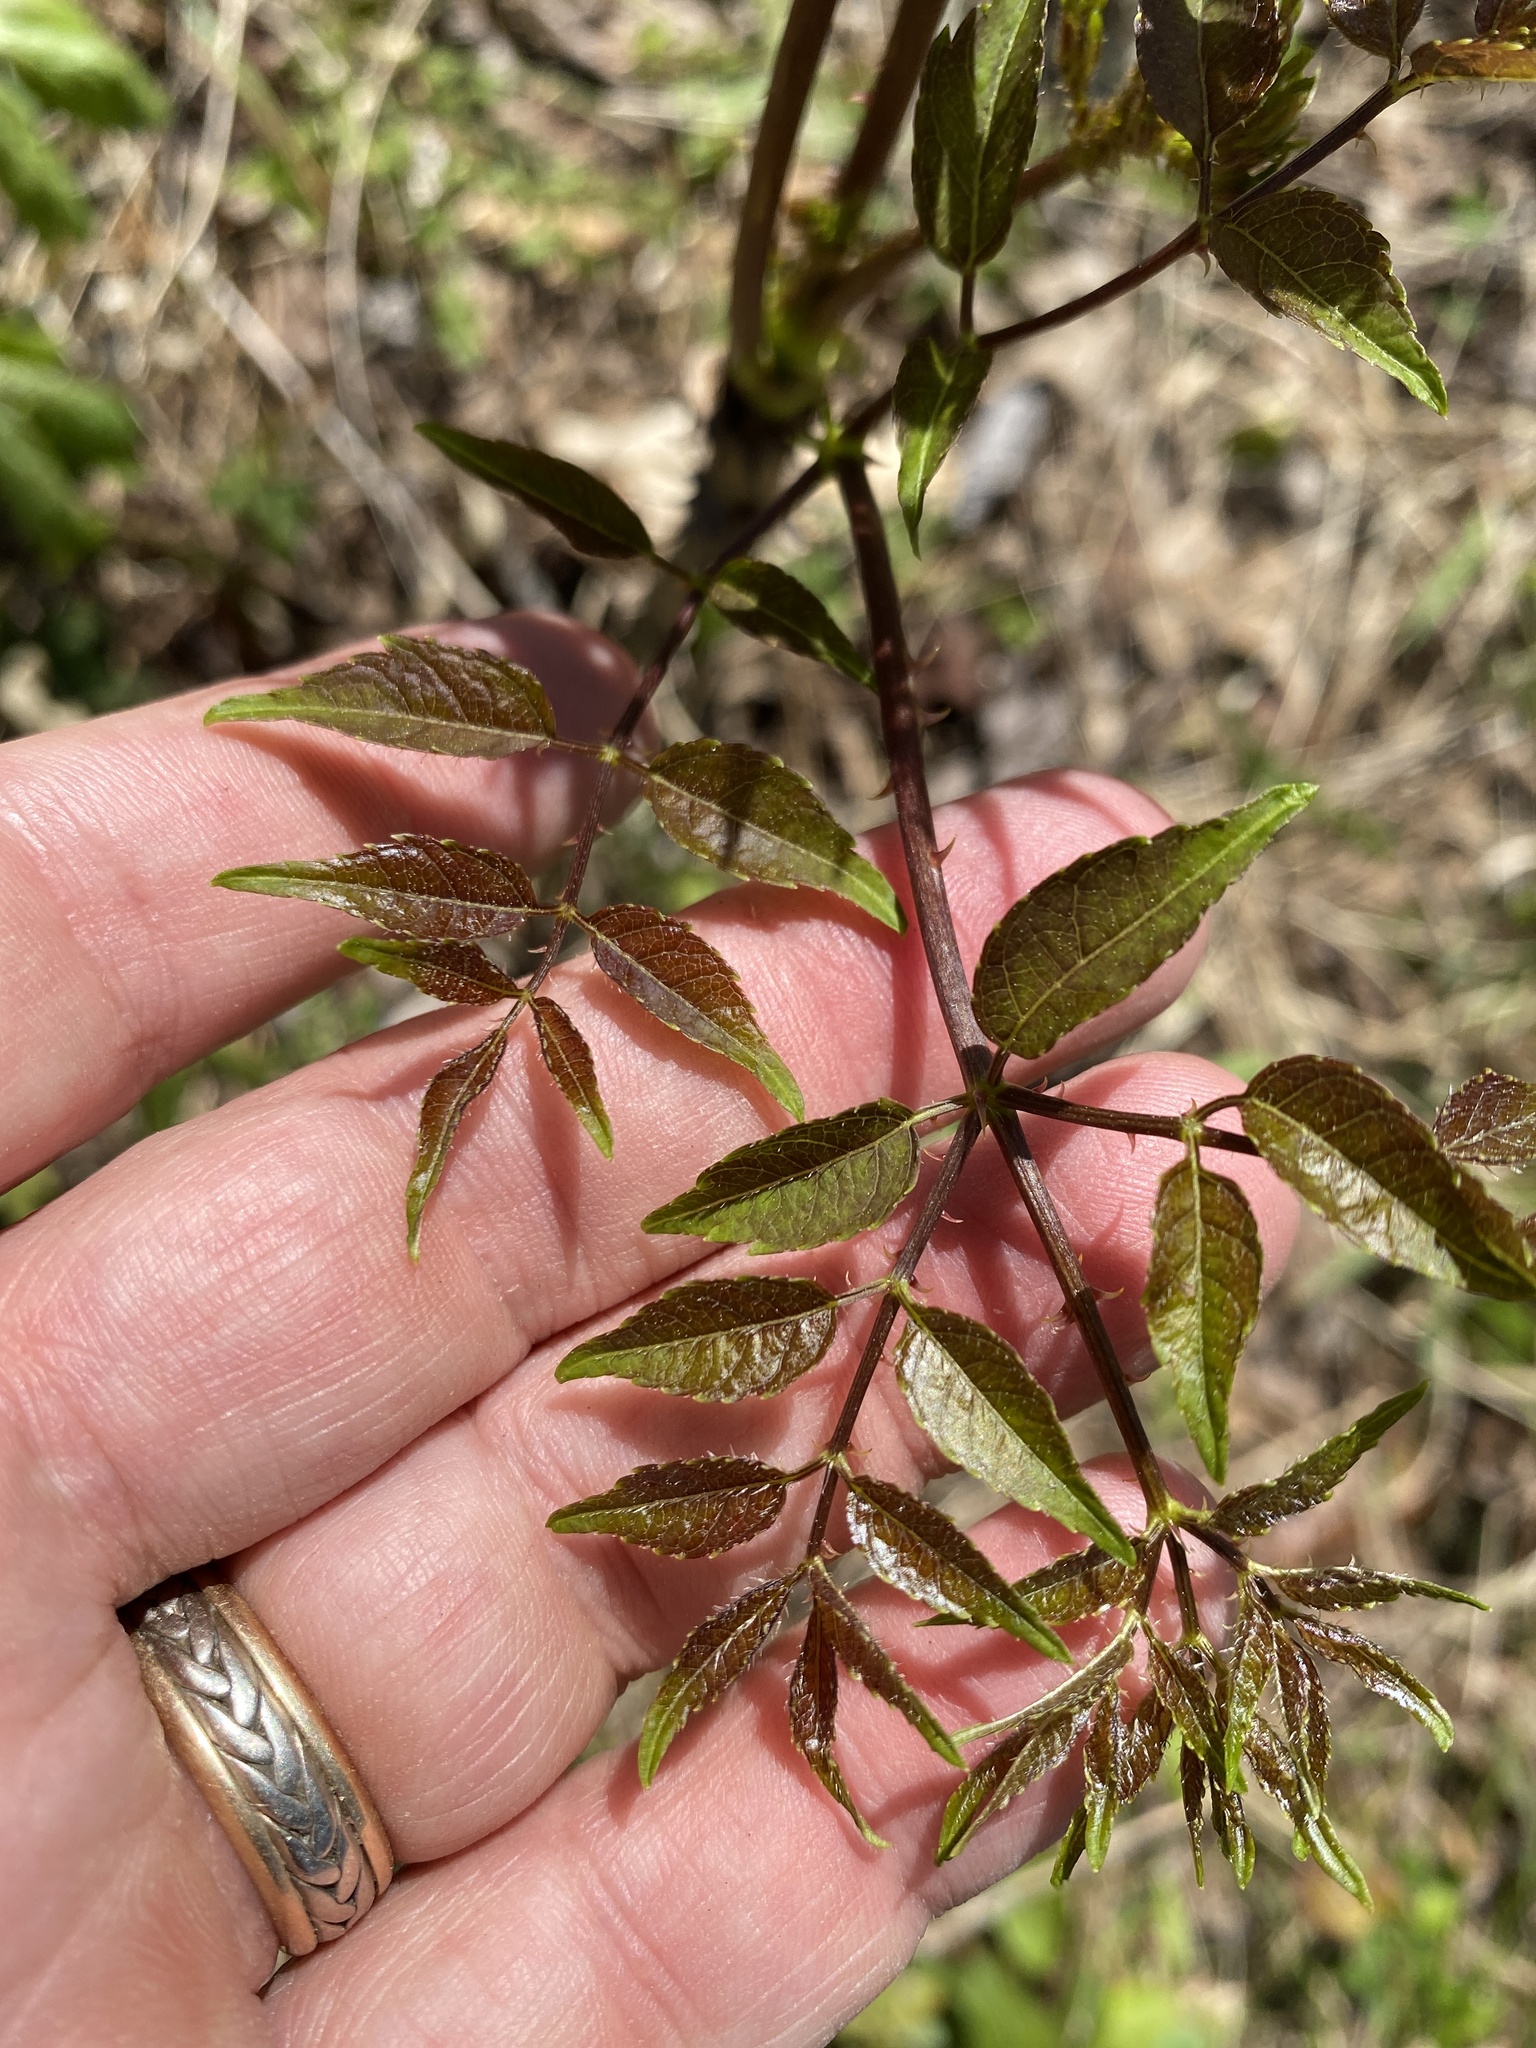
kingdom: Plantae
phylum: Tracheophyta
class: Magnoliopsida
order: Apiales
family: Araliaceae
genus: Aralia
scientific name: Aralia spinosa
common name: Hercules'-club
